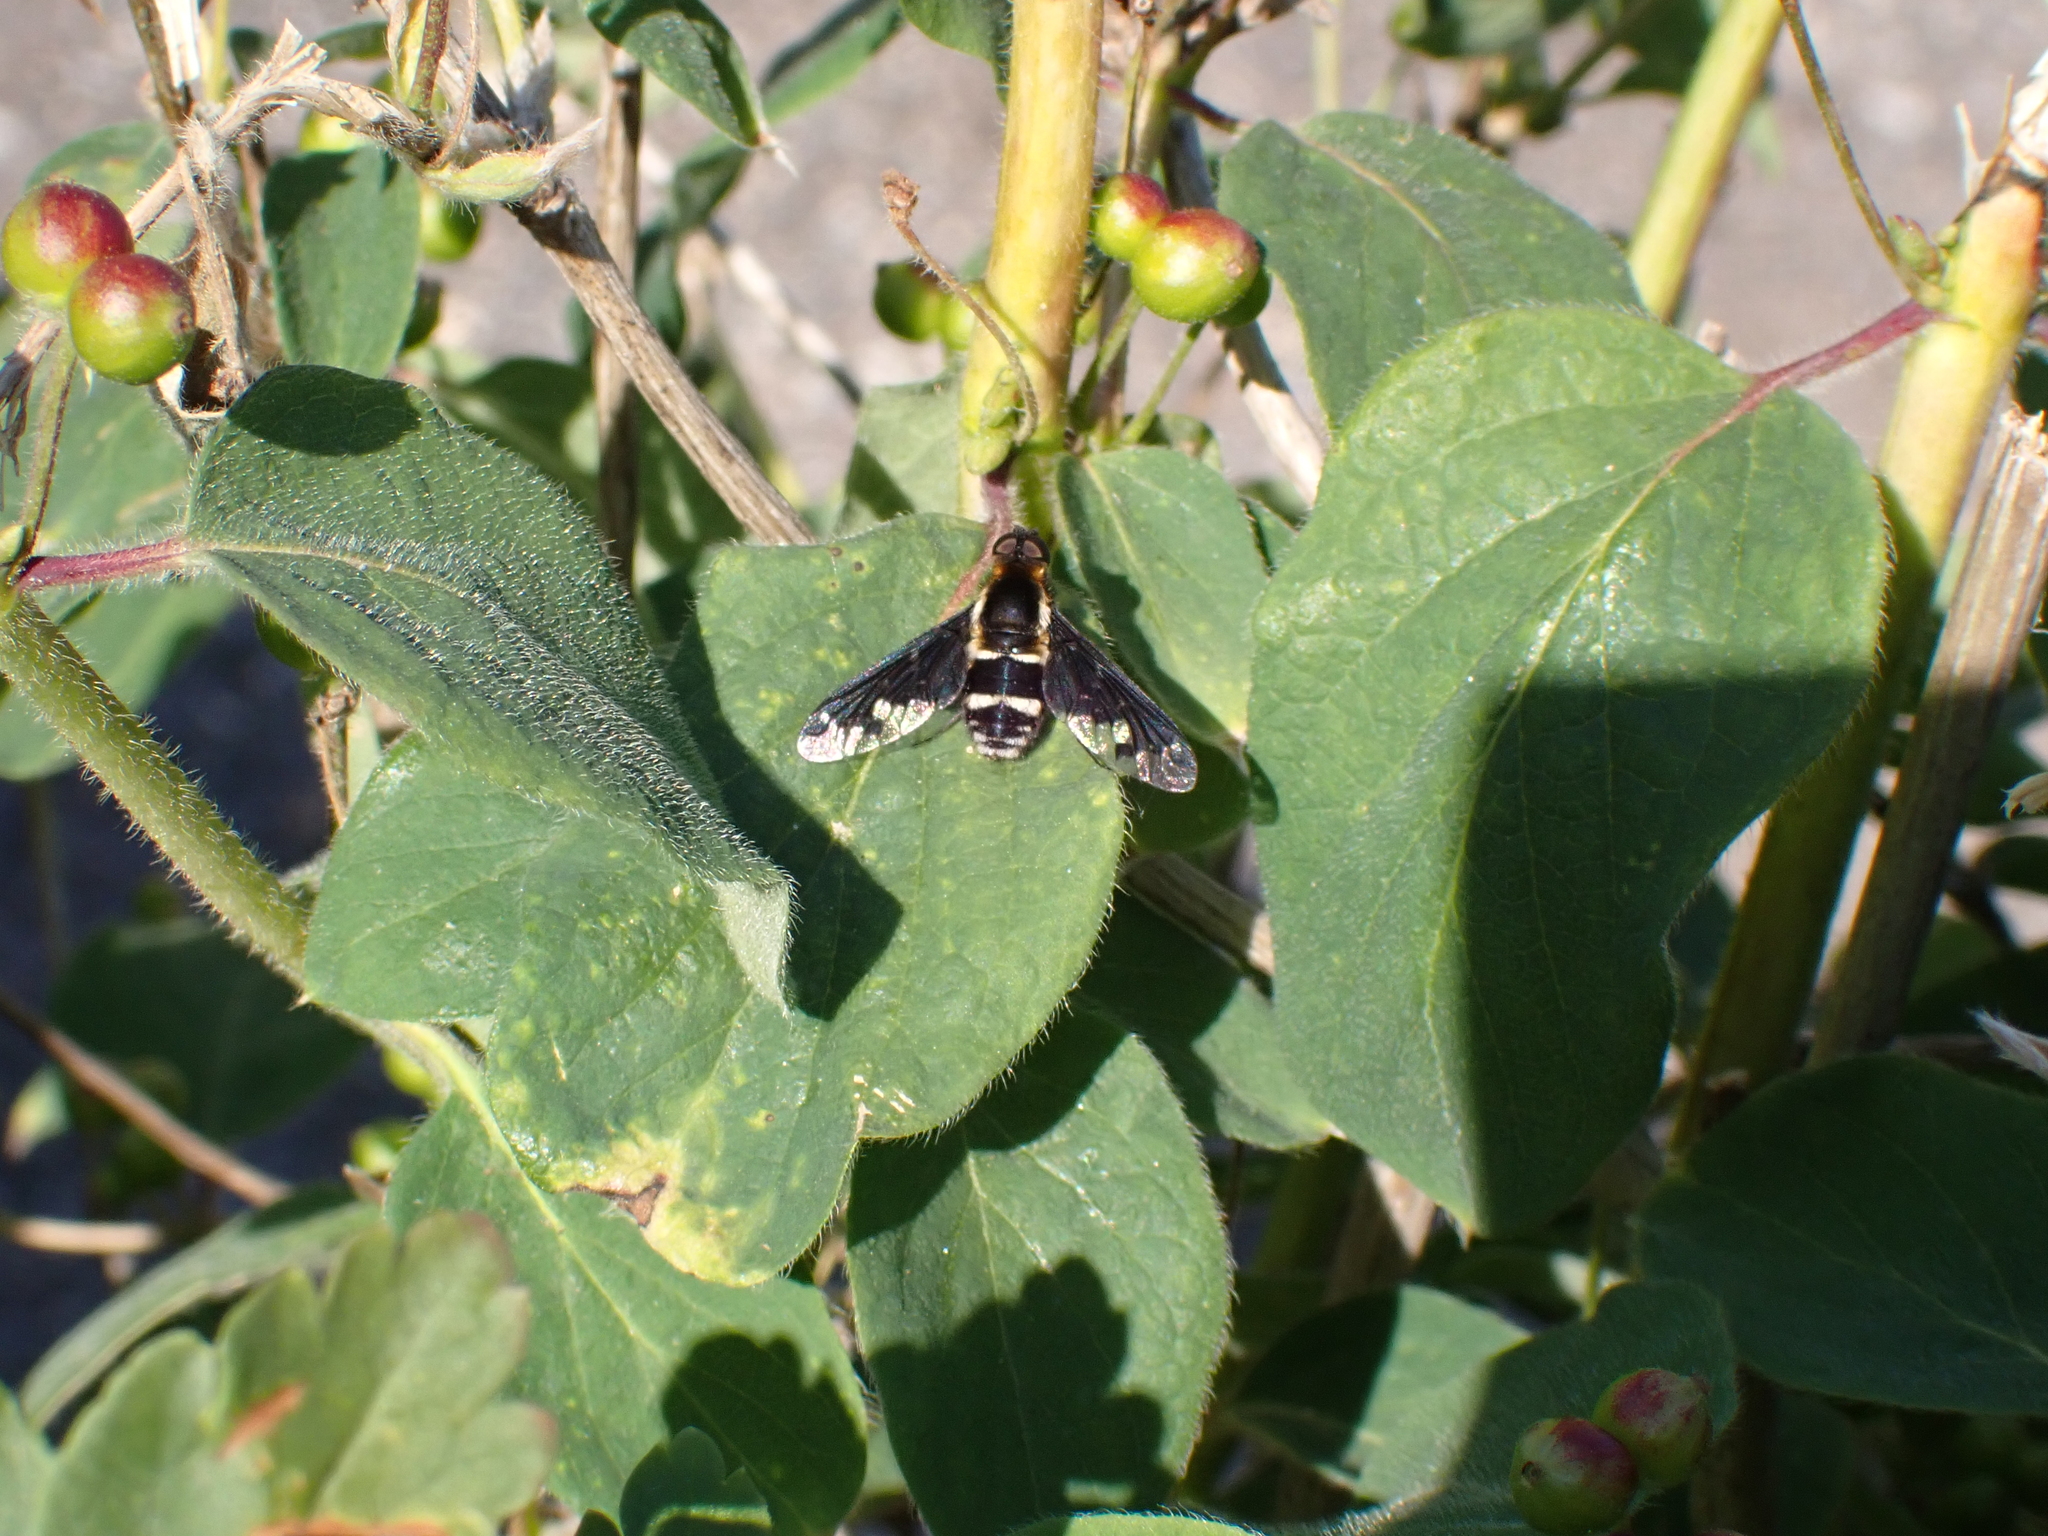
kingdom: Animalia
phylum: Arthropoda
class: Insecta
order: Diptera
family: Bombyliidae
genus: Hemipenthes
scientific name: Hemipenthes maura
